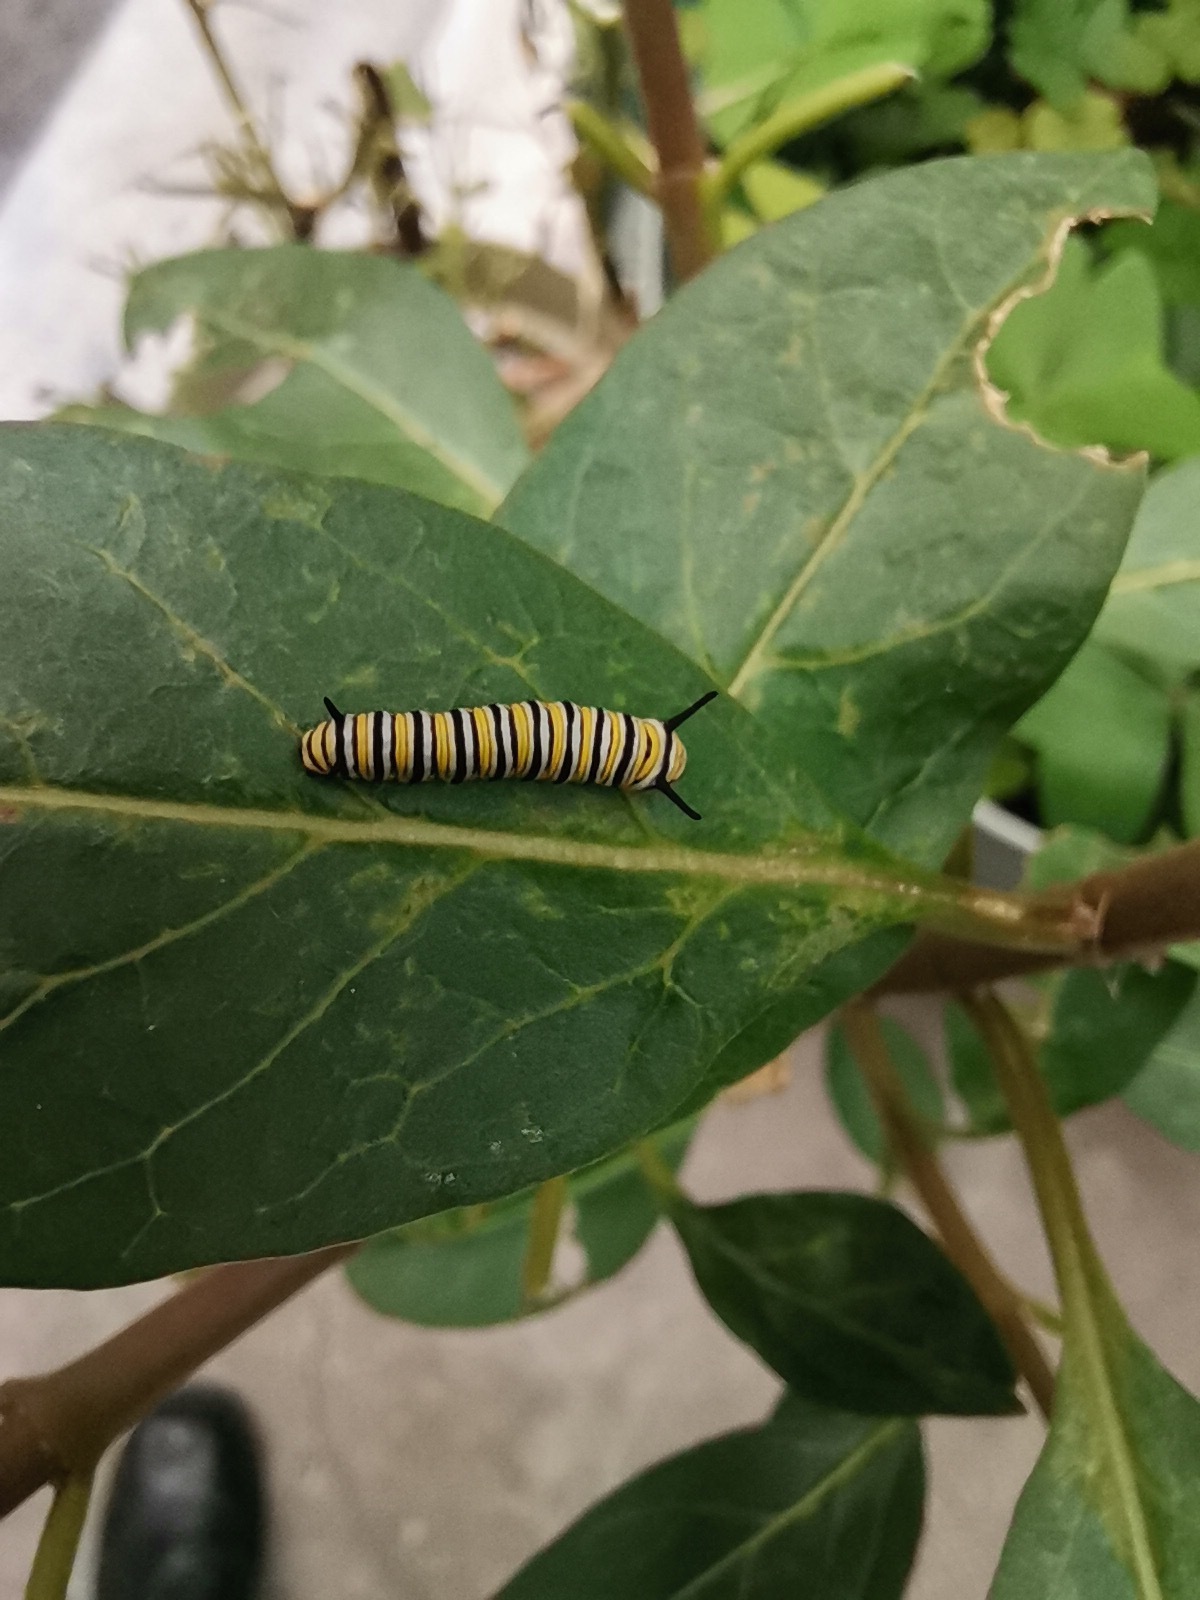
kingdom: Animalia
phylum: Arthropoda
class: Insecta
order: Lepidoptera
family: Nymphalidae
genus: Danaus
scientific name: Danaus plexippus
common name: Monarch
